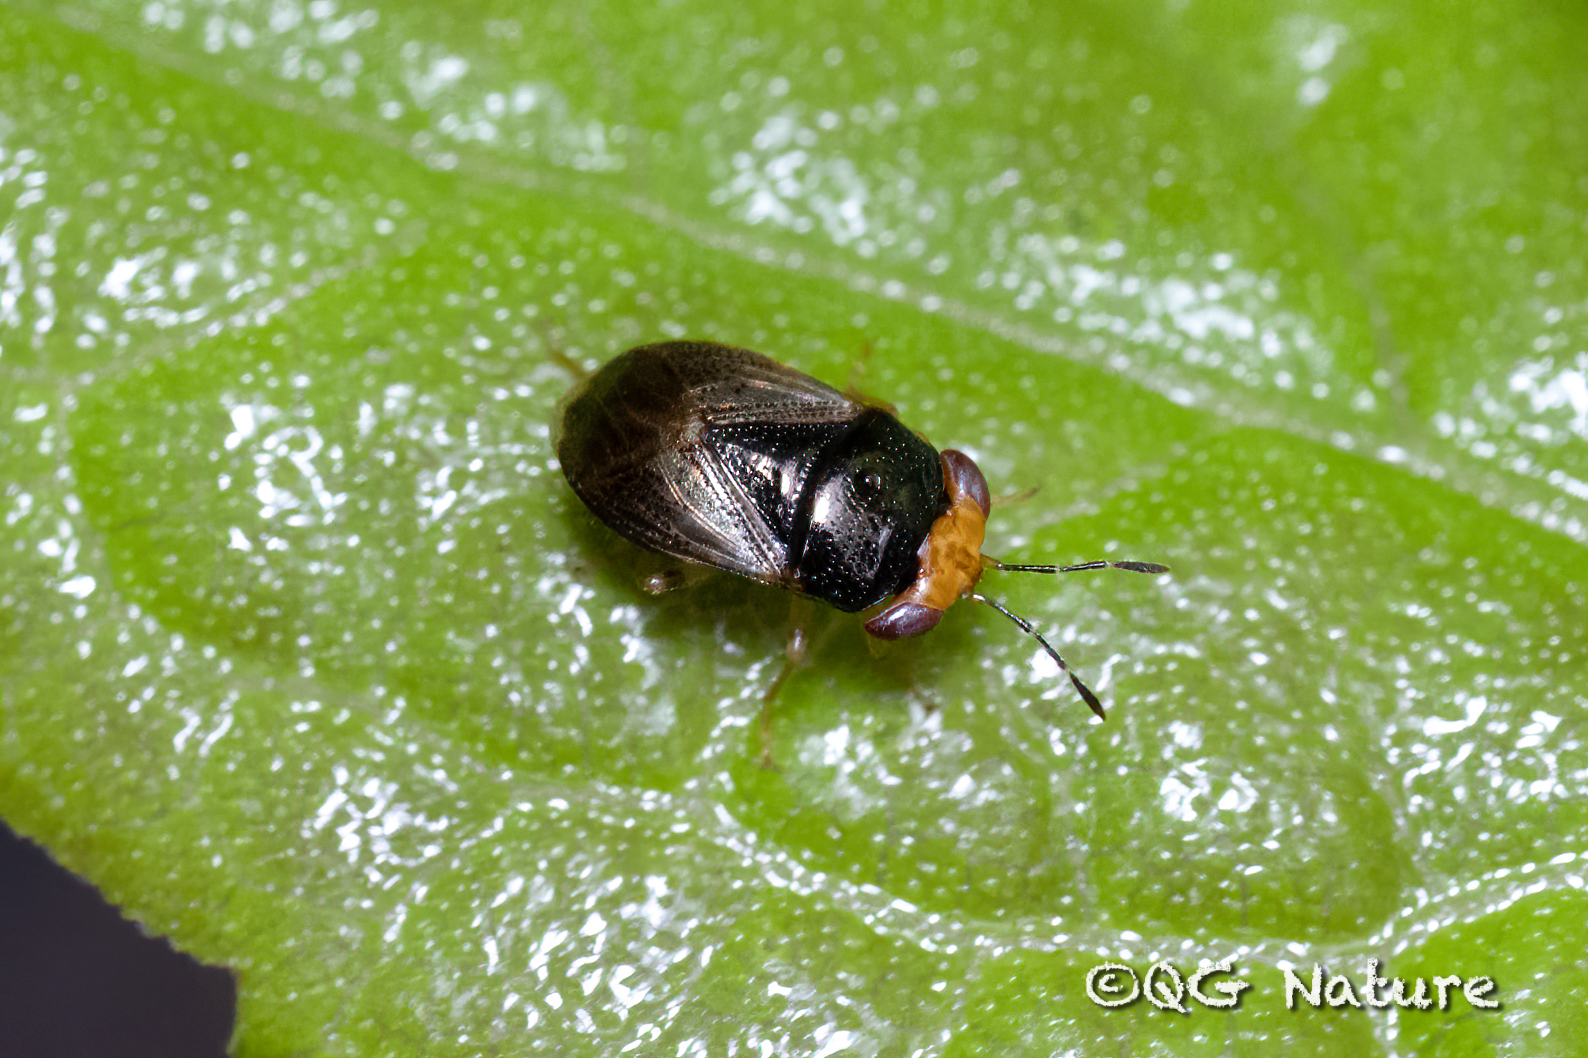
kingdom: Animalia
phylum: Arthropoda
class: Insecta
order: Hemiptera
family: Geocoridae
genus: Geocoris
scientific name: Geocoris varius
